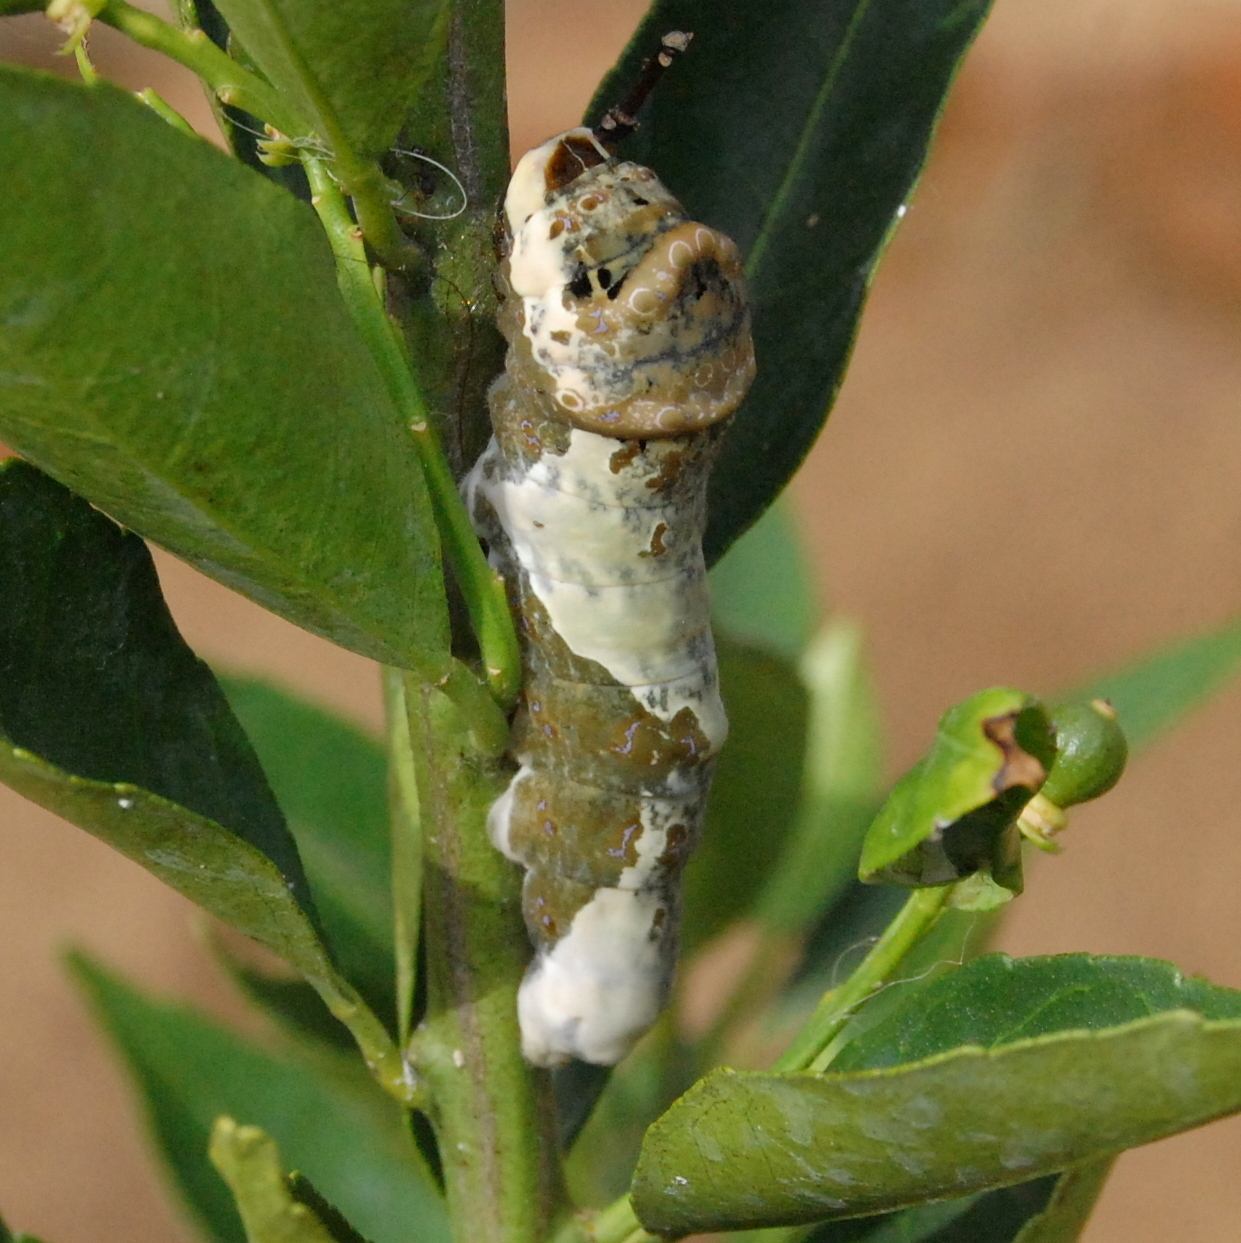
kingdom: Animalia
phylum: Arthropoda
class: Insecta
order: Lepidoptera
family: Papilionidae
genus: Papilio
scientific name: Papilio thoas
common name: King swallowtail
